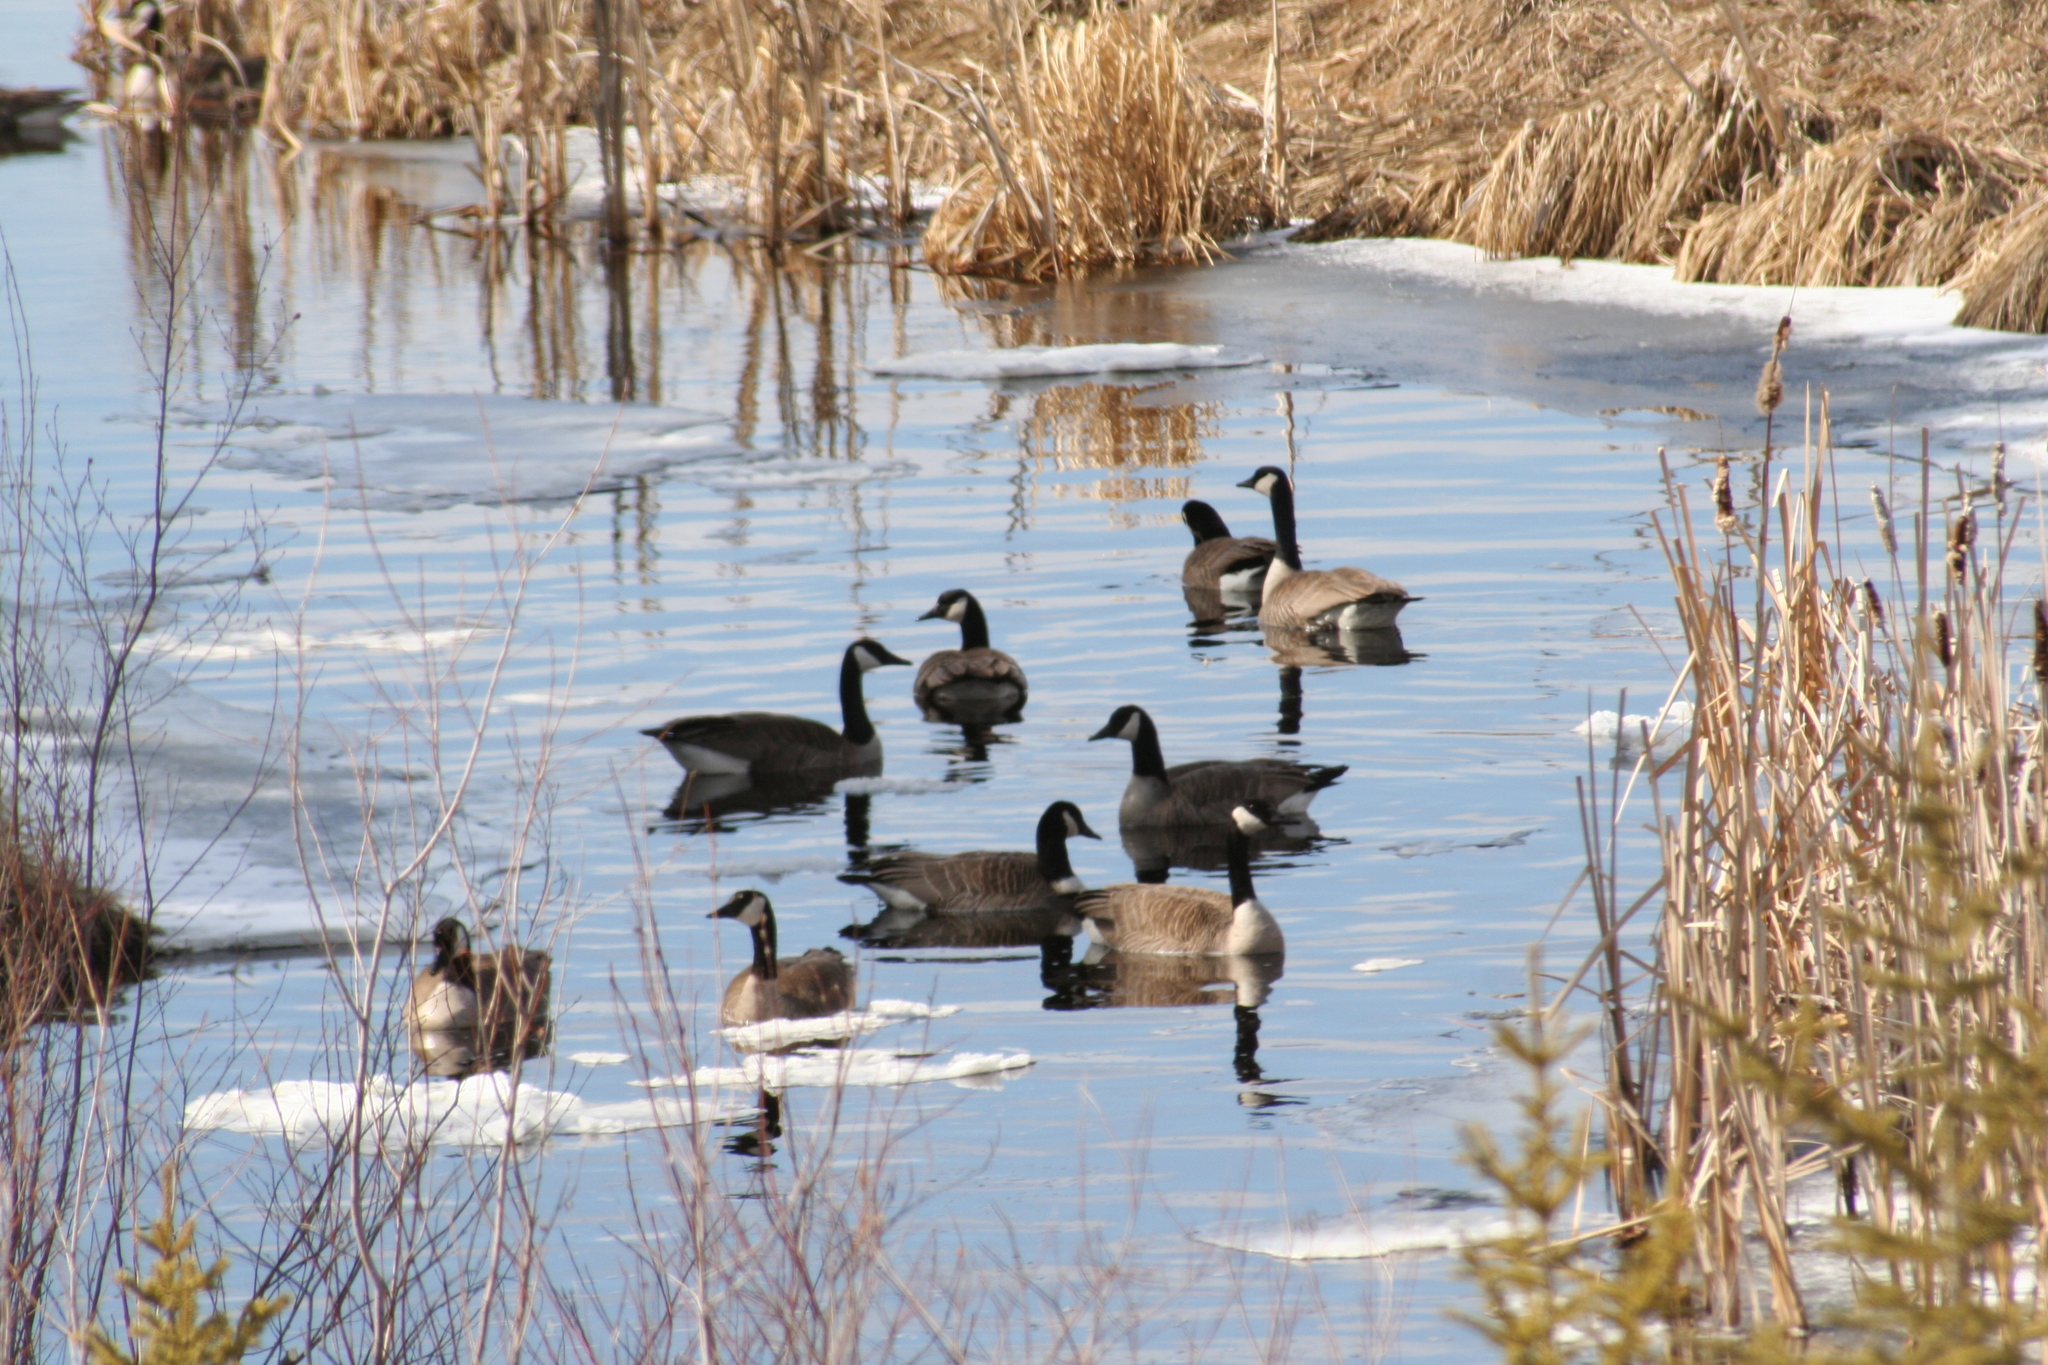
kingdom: Animalia
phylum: Chordata
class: Aves
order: Anseriformes
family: Anatidae
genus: Branta
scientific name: Branta canadensis
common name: Canada goose
